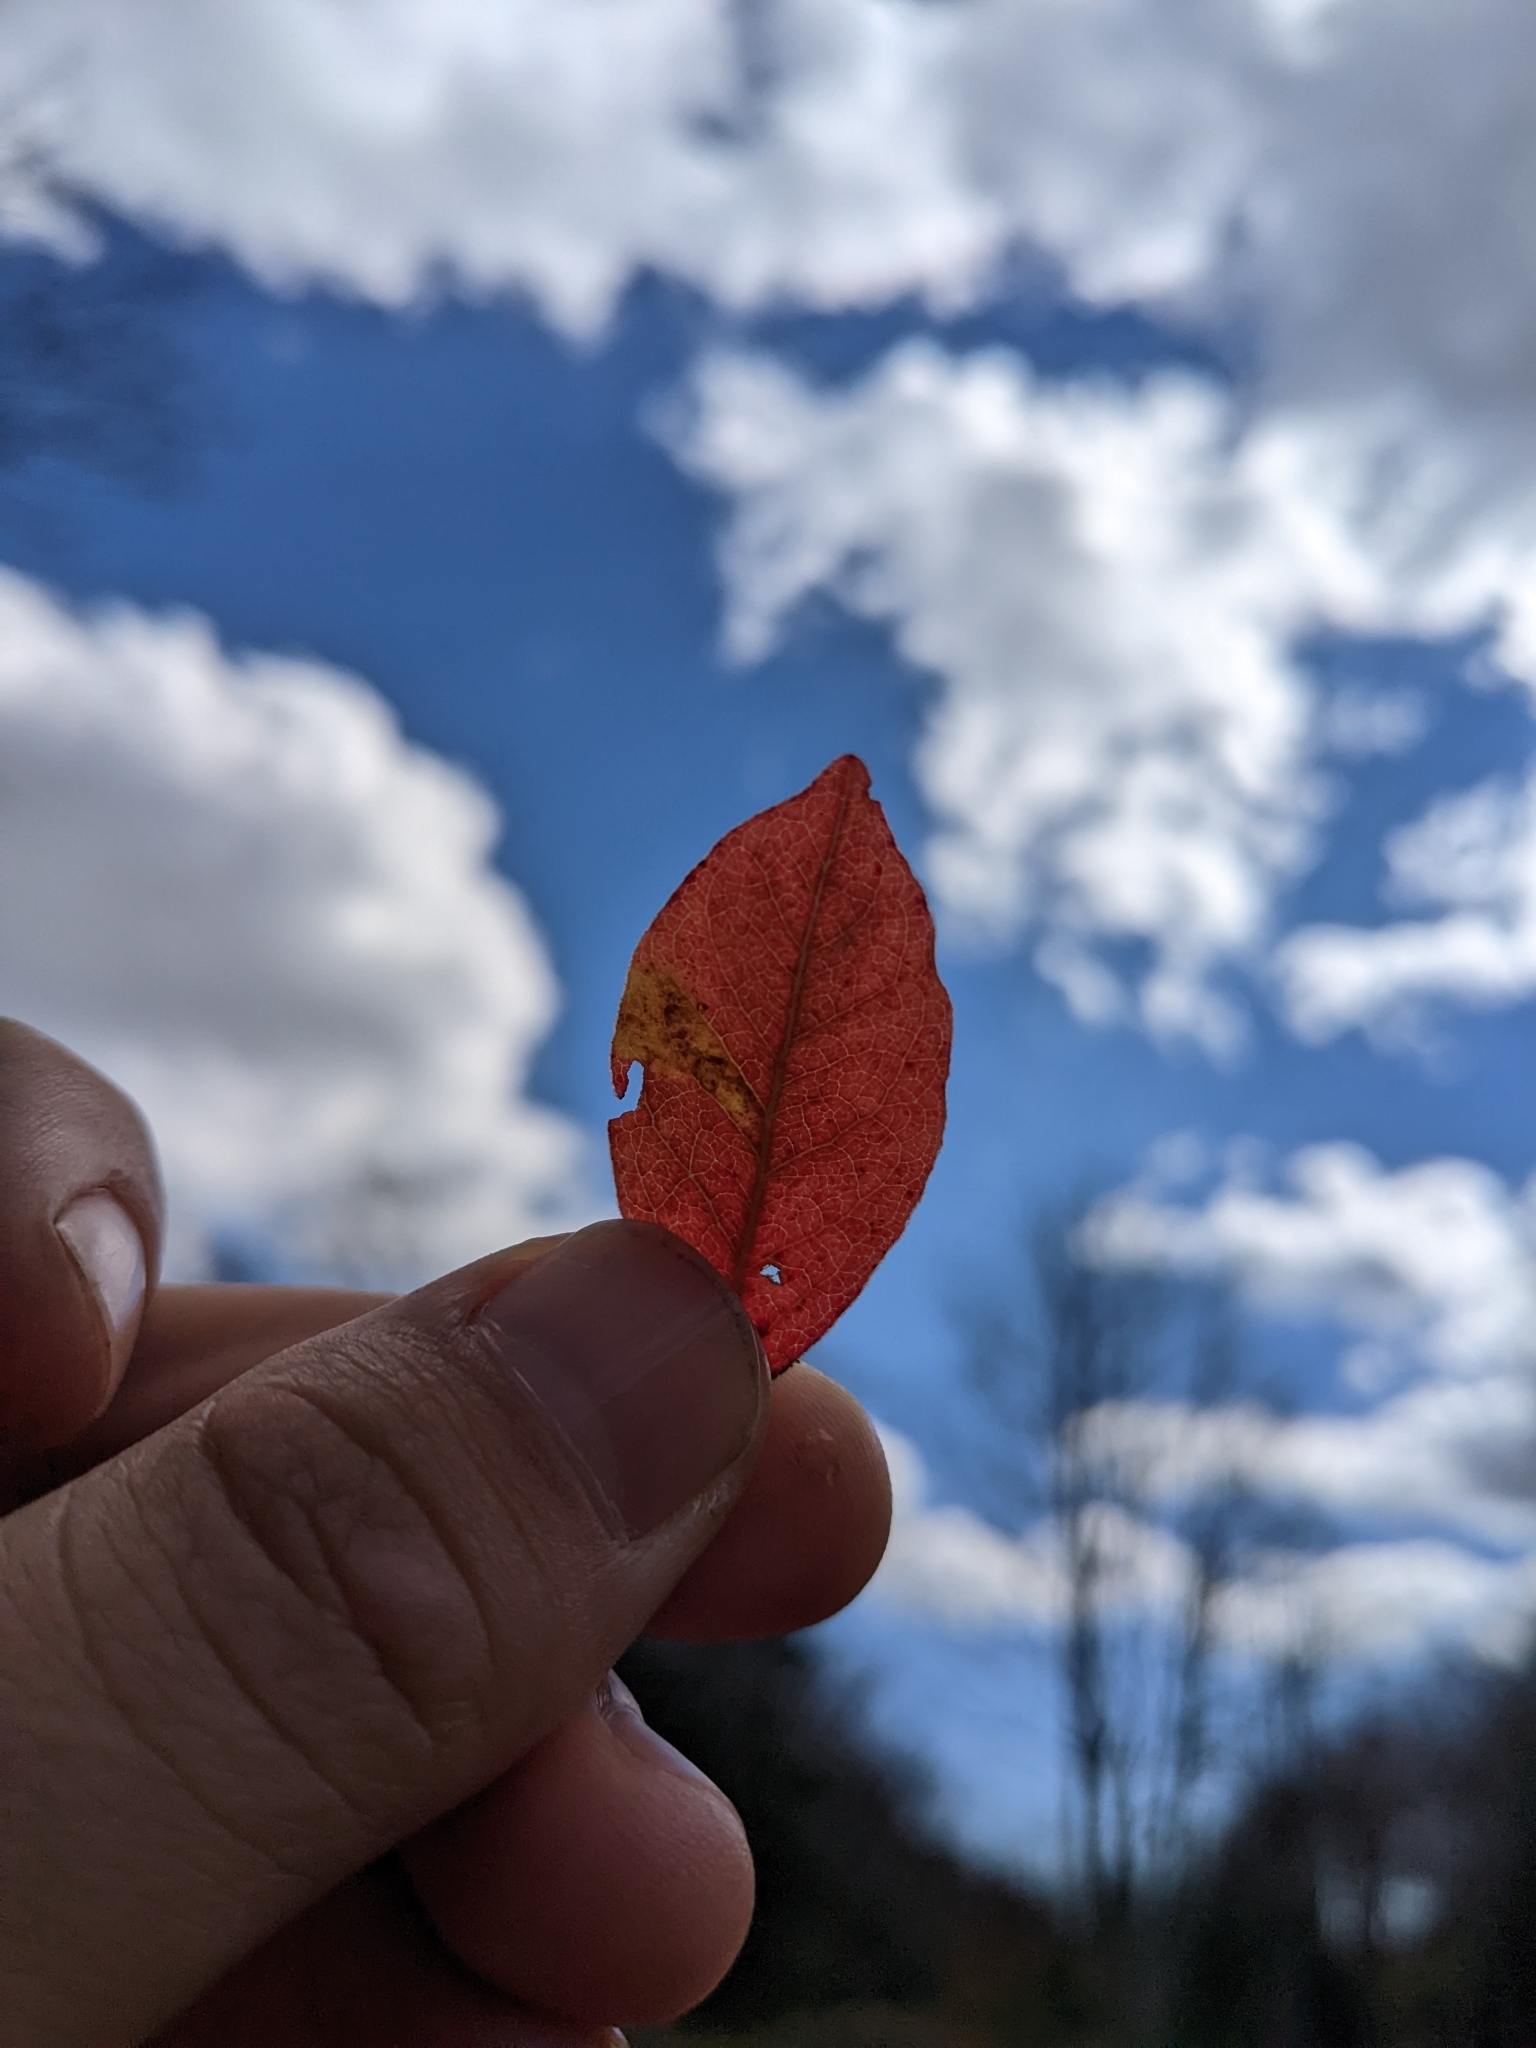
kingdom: Plantae
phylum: Tracheophyta
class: Magnoliopsida
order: Ericales
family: Ericaceae
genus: Vaccinium
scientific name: Vaccinium myrtilloides
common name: Canada blueberry
